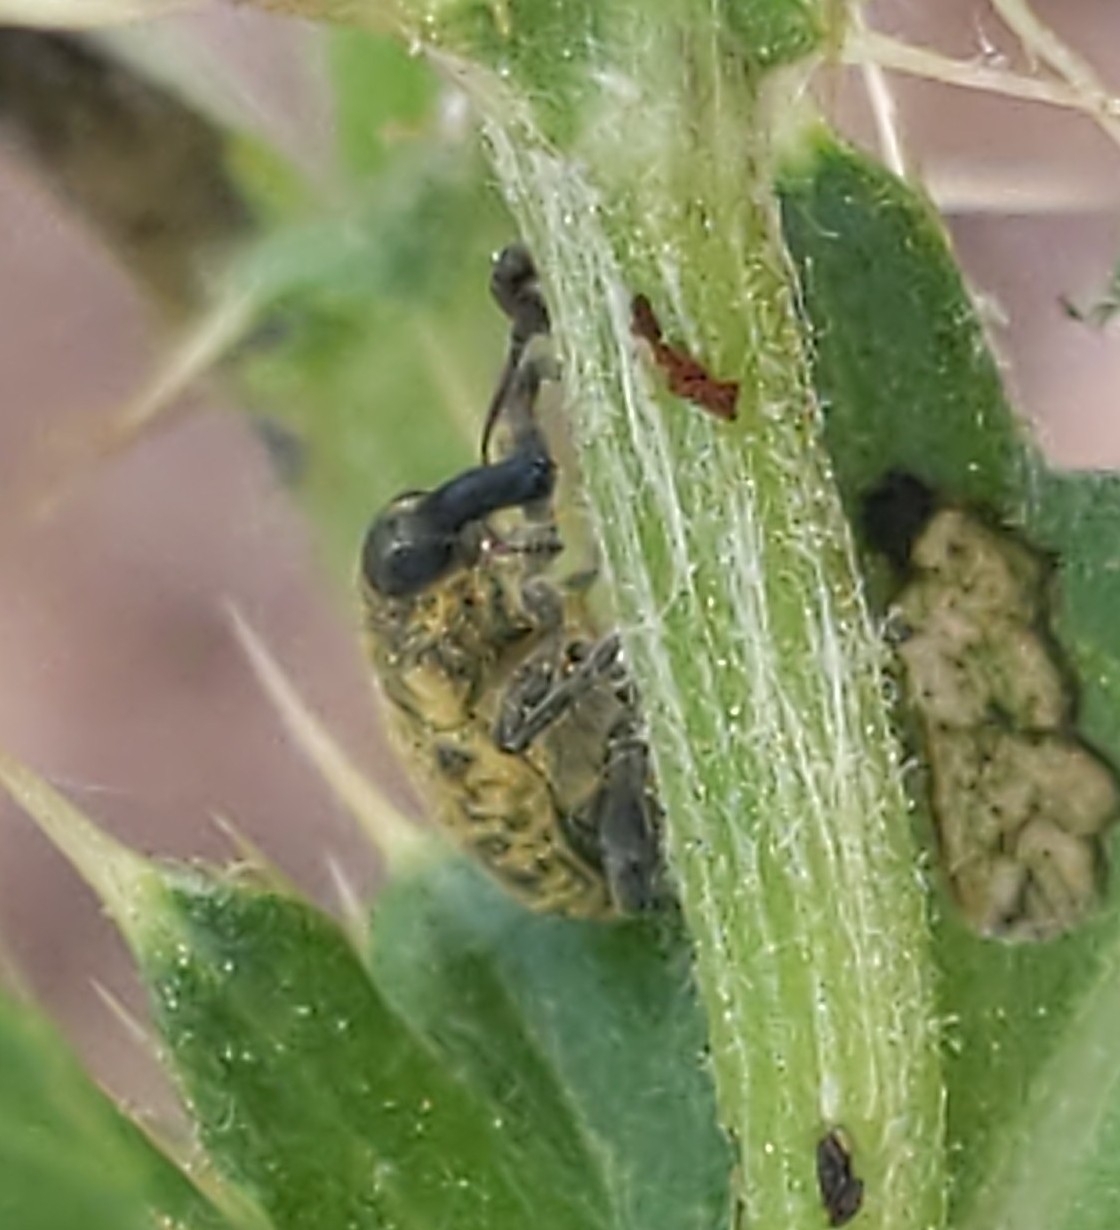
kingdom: Animalia
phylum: Arthropoda
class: Insecta
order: Coleoptera
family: Curculionidae
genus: Larinus
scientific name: Larinus carlinae
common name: Weevil
